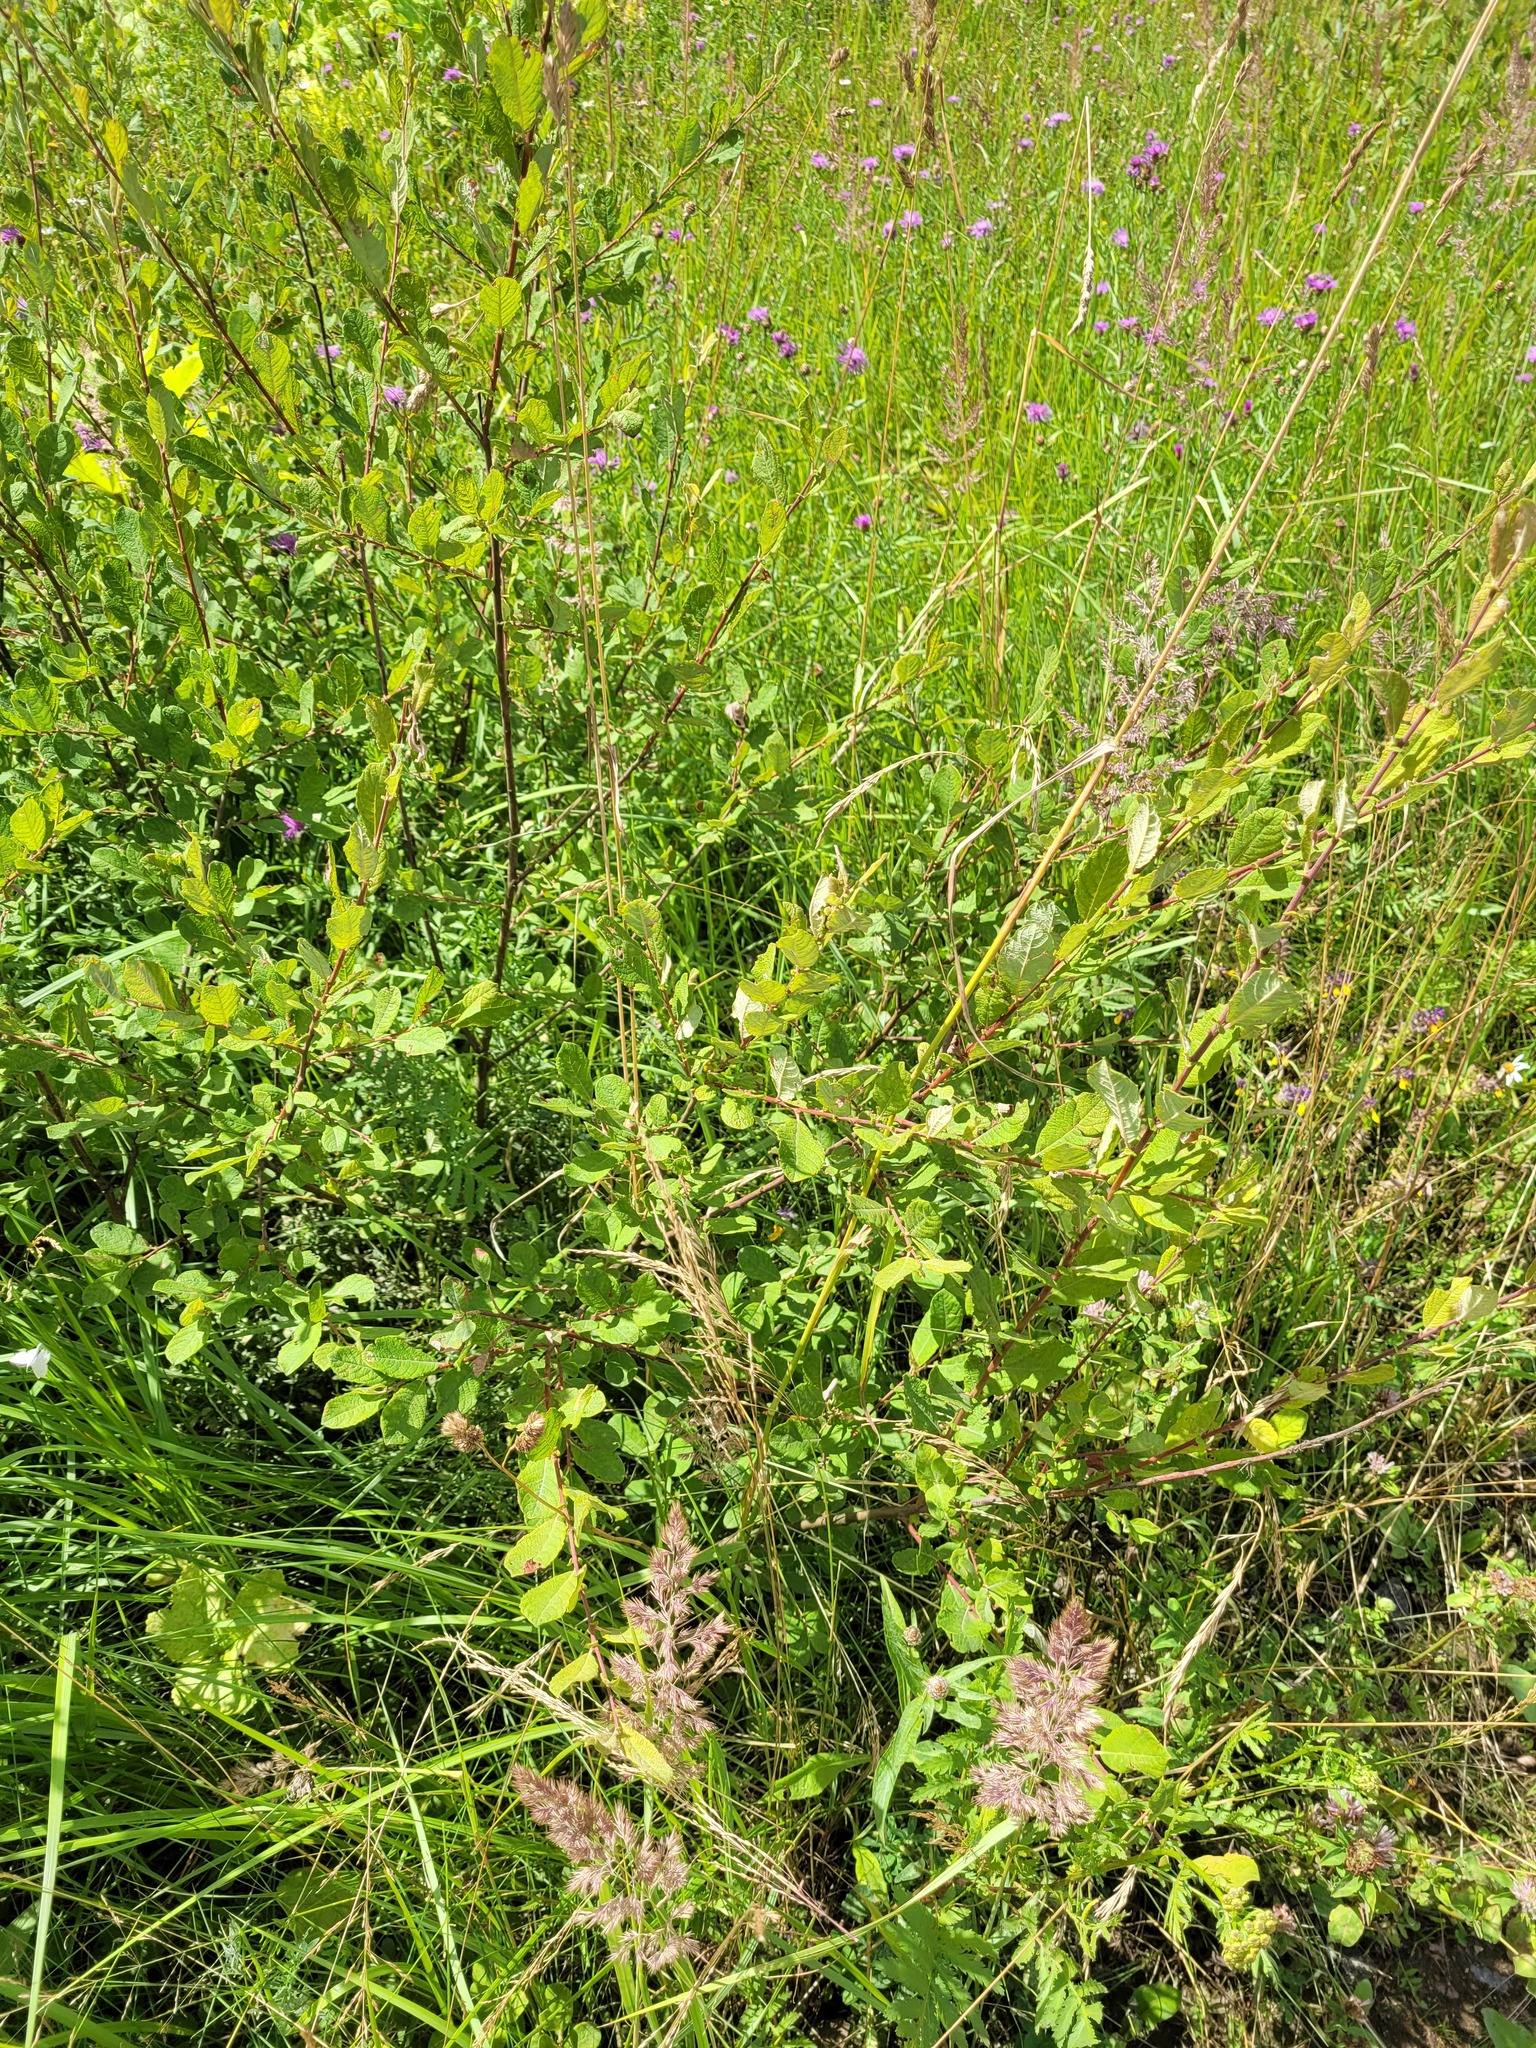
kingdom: Plantae
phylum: Tracheophyta
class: Magnoliopsida
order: Malpighiales
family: Salicaceae
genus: Salix
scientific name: Salix aurita
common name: Eared willow
